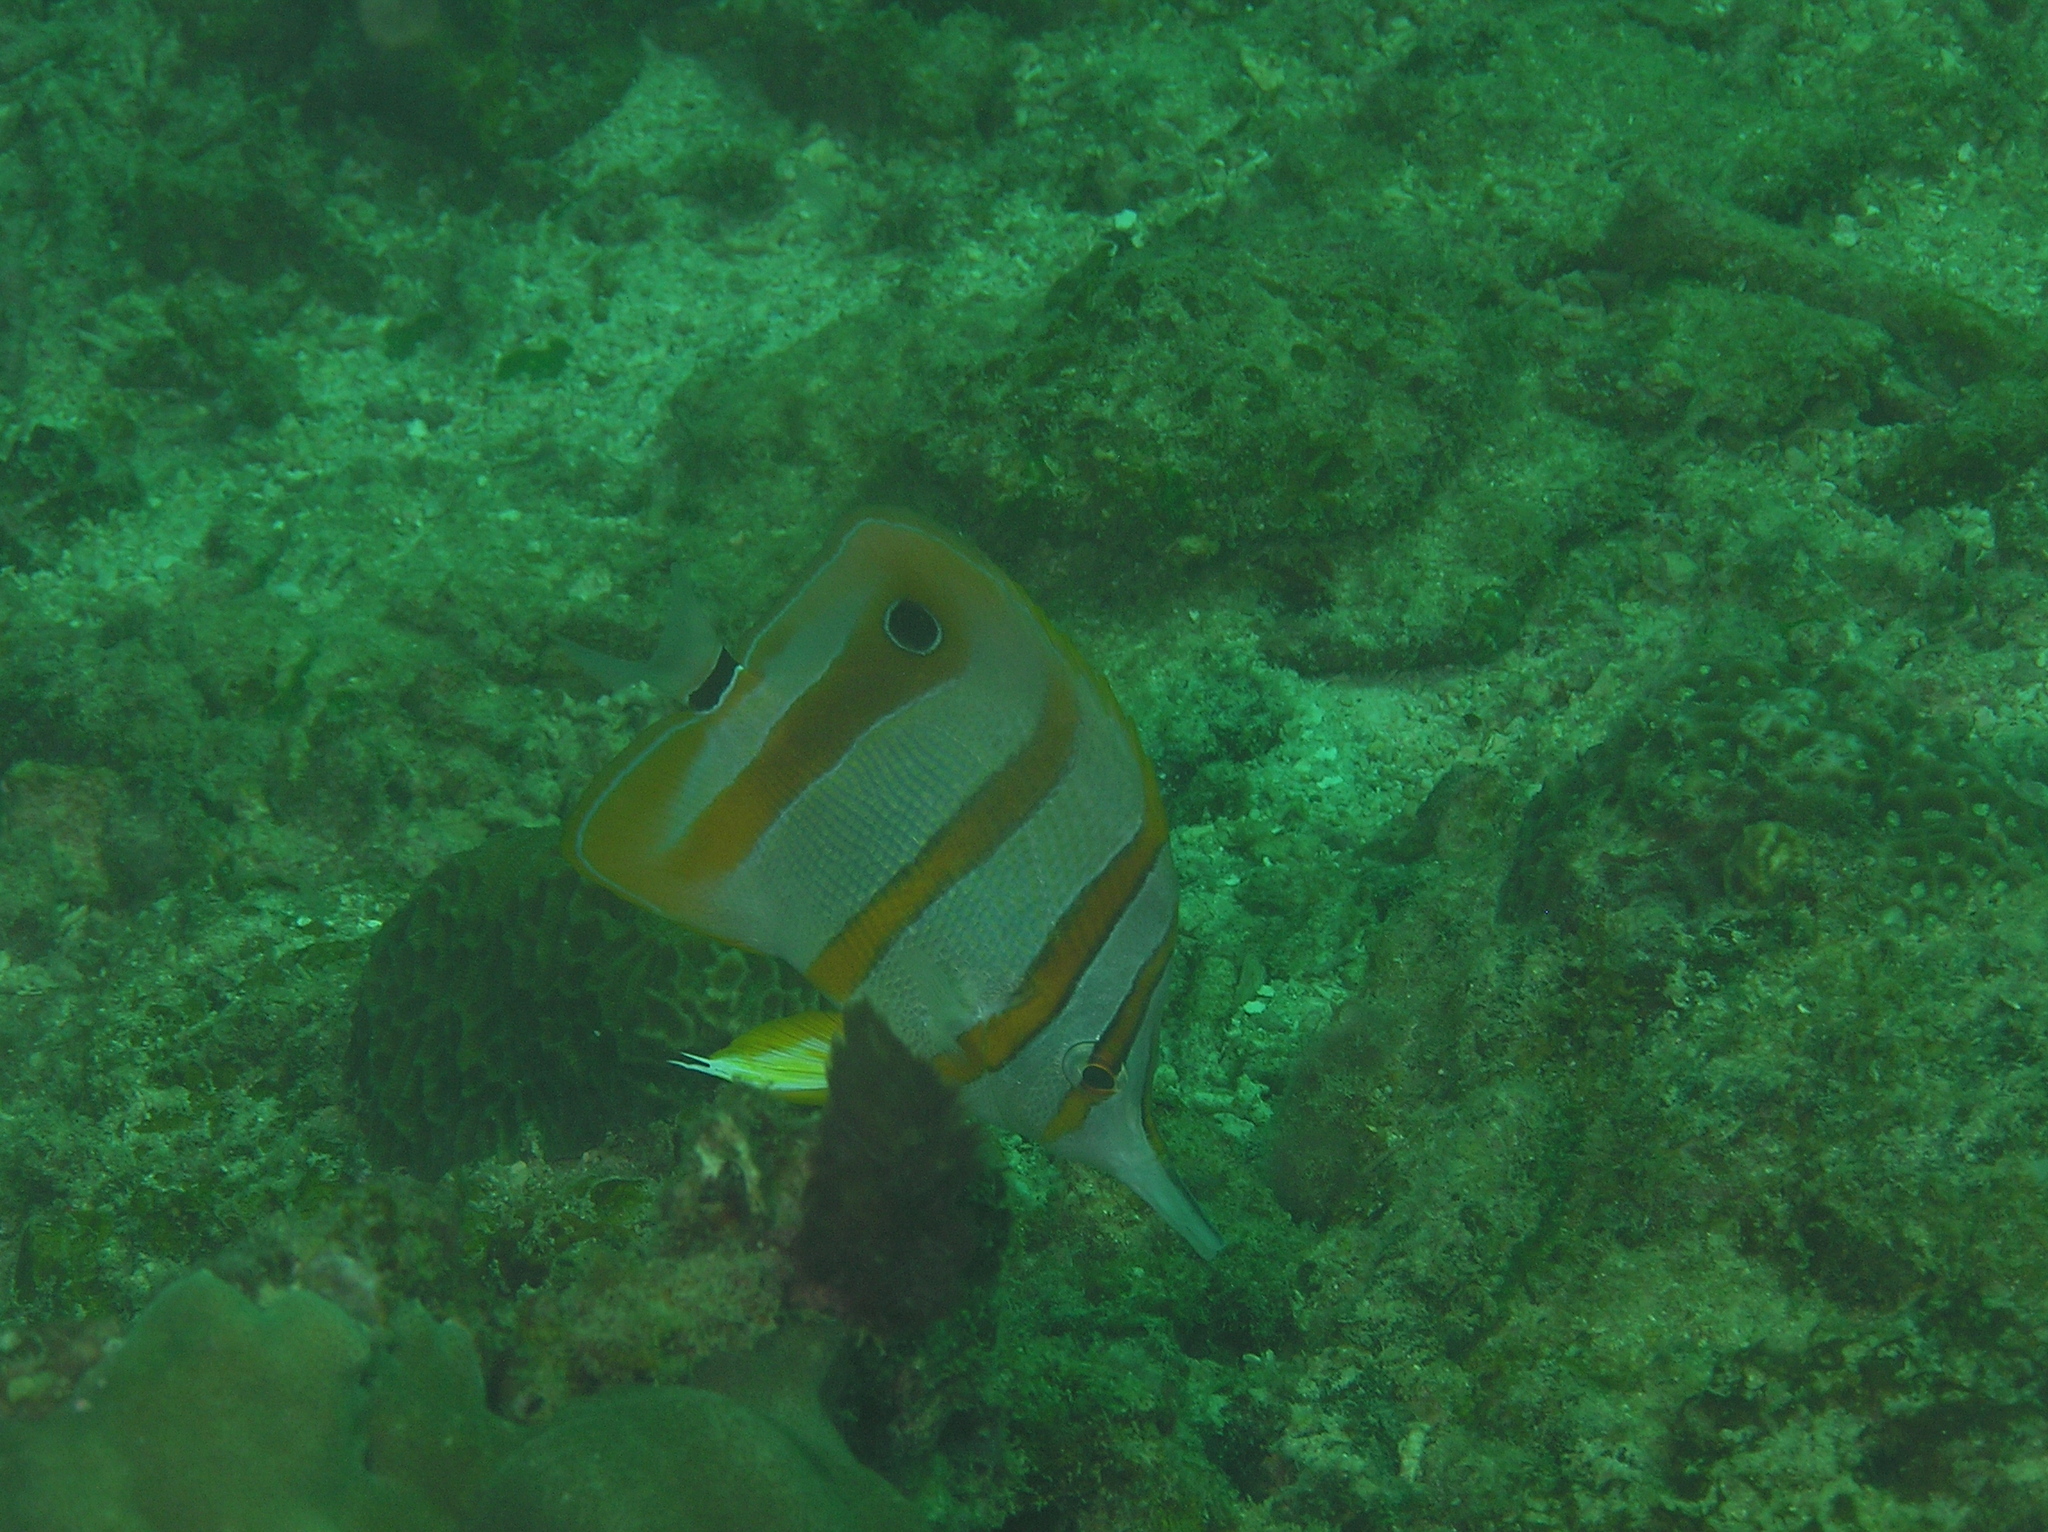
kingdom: Animalia
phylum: Chordata
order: Perciformes
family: Chaetodontidae
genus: Chelmon
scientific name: Chelmon rostratus
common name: Beaked butterflyfish
